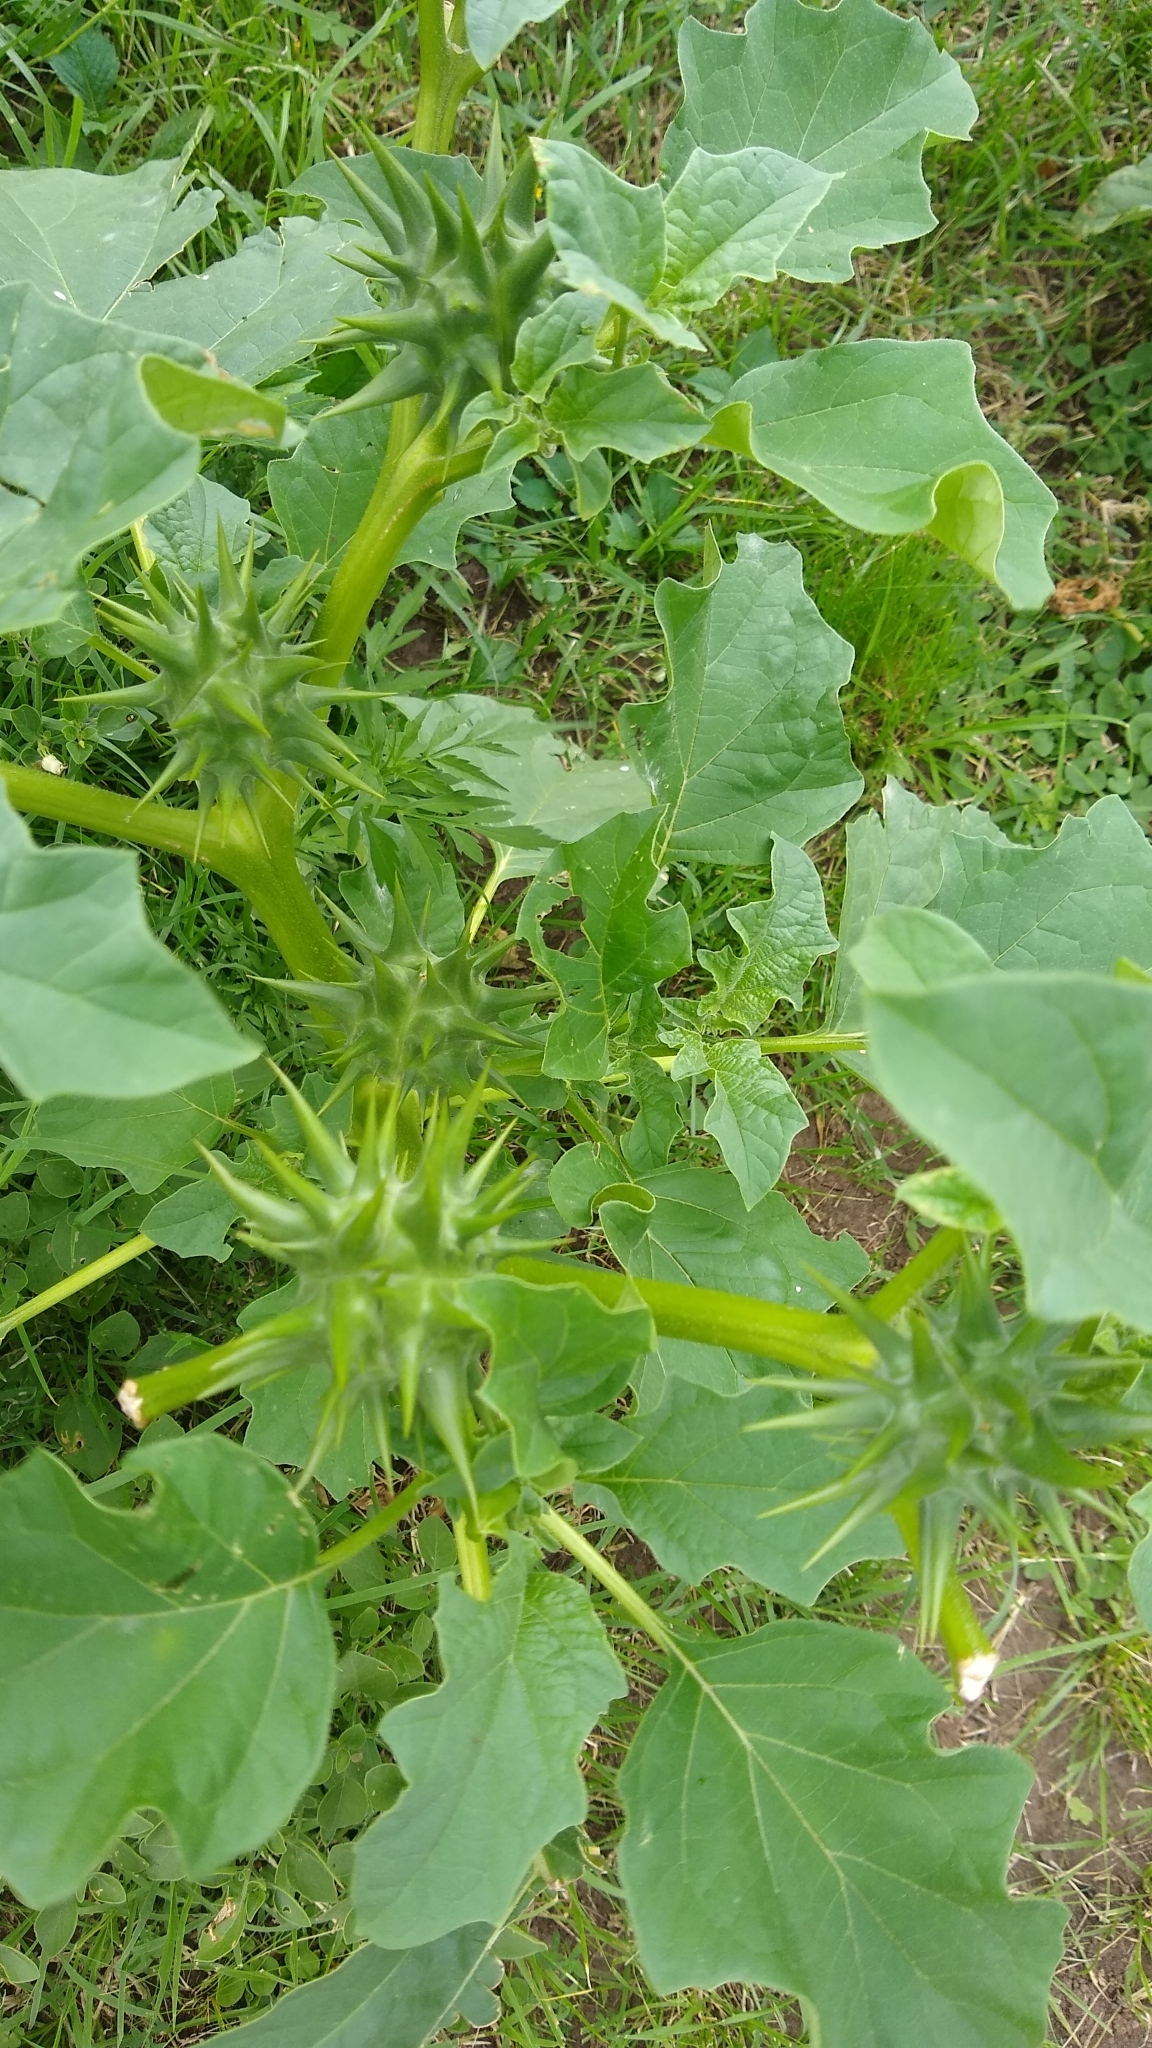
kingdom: Plantae
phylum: Tracheophyta
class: Magnoliopsida
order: Solanales
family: Solanaceae
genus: Datura
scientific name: Datura ferox
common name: Angel's-trumpets
